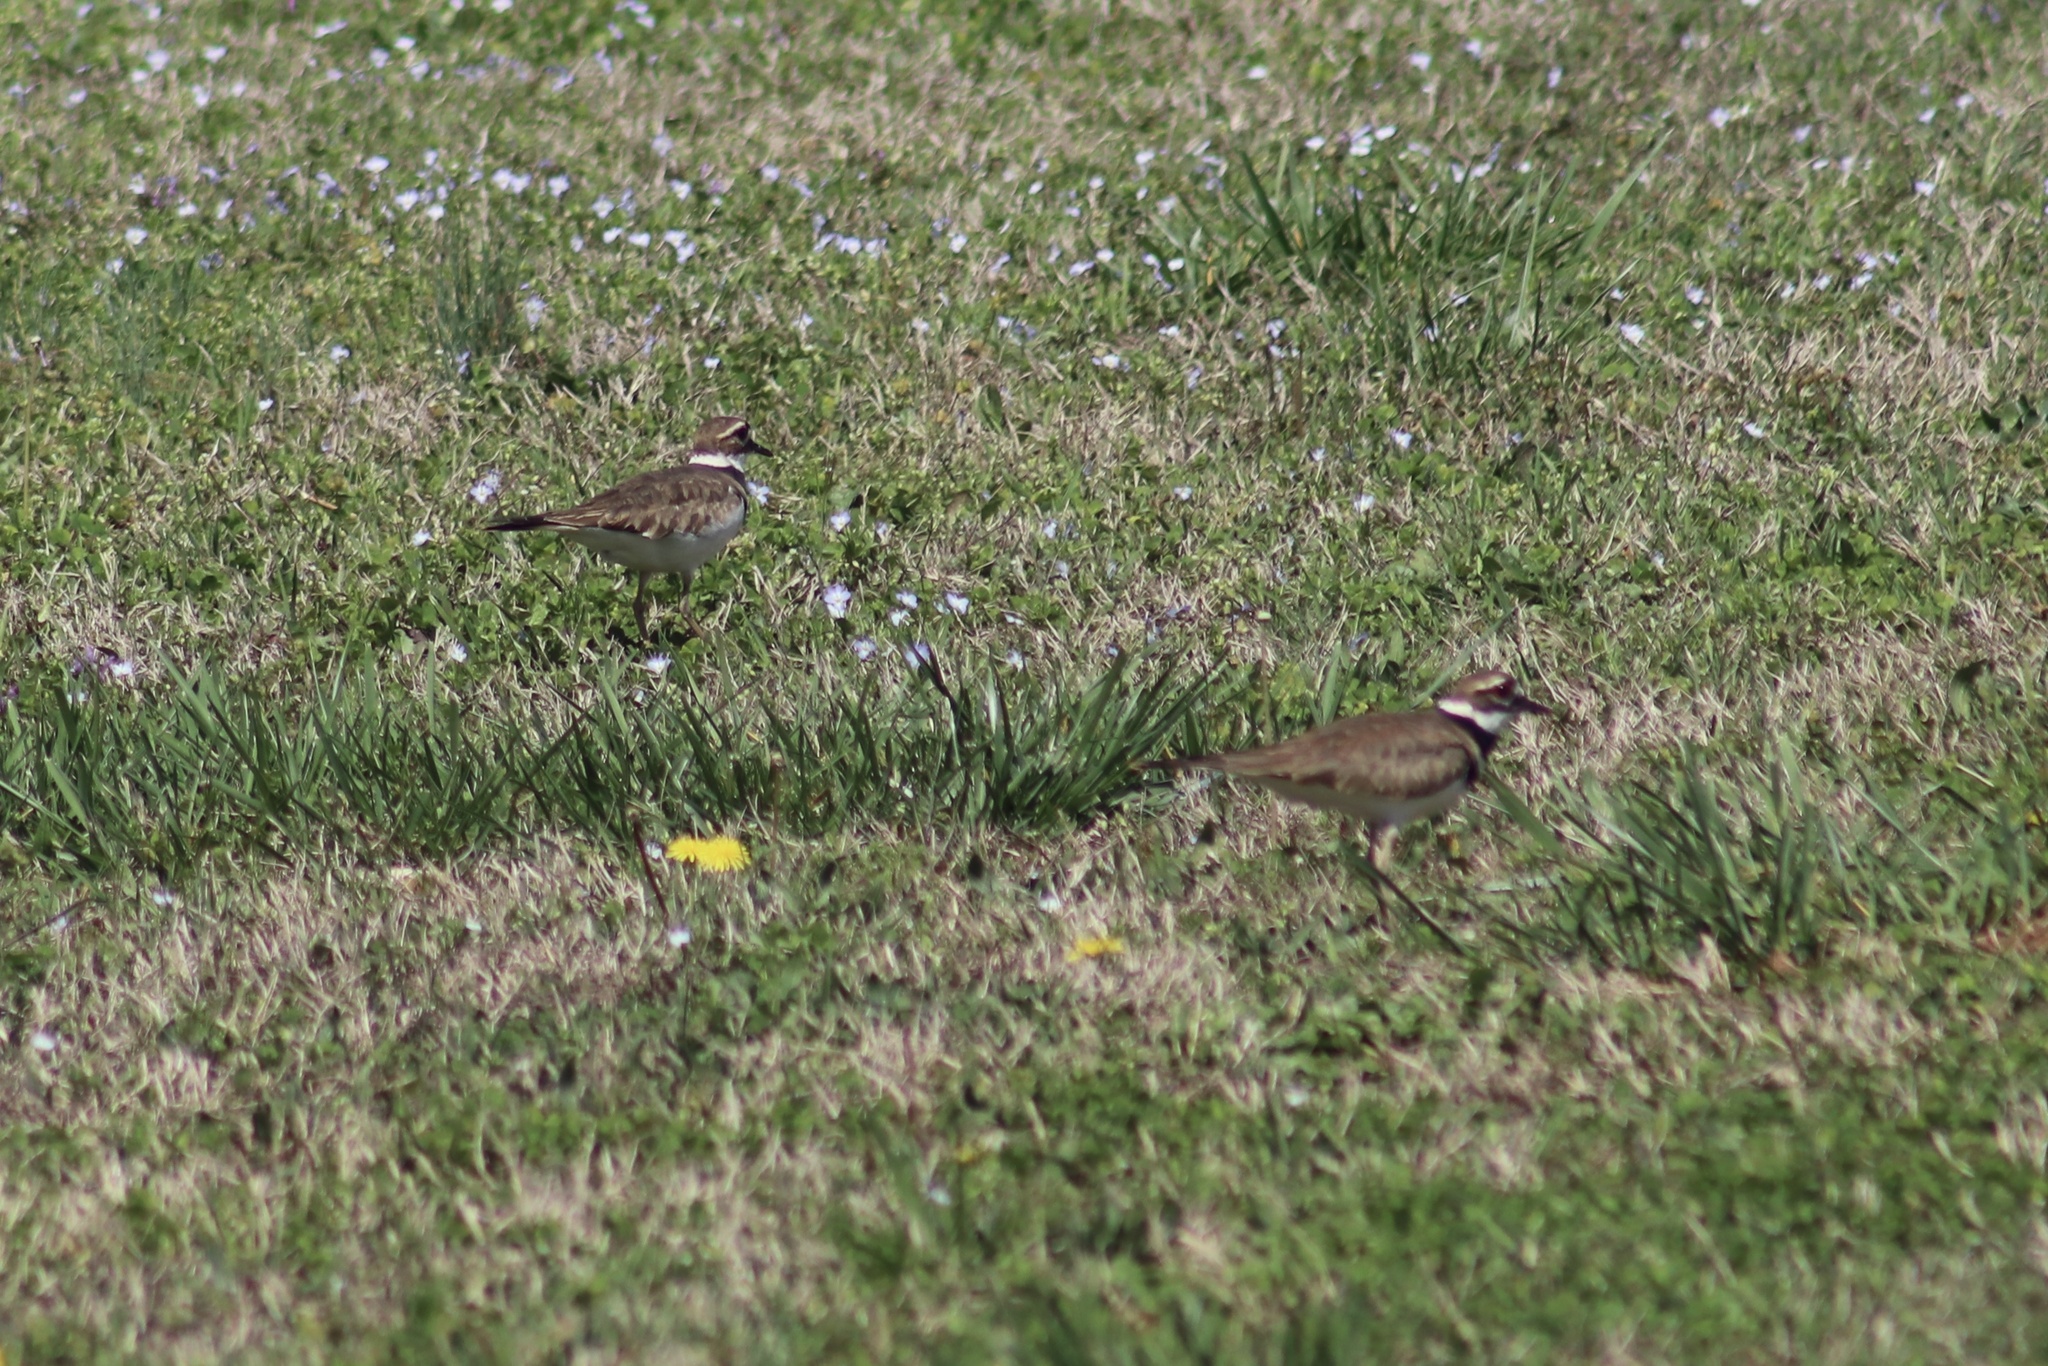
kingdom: Animalia
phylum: Chordata
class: Aves
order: Charadriiformes
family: Charadriidae
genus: Charadrius
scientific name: Charadrius vociferus
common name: Killdeer
